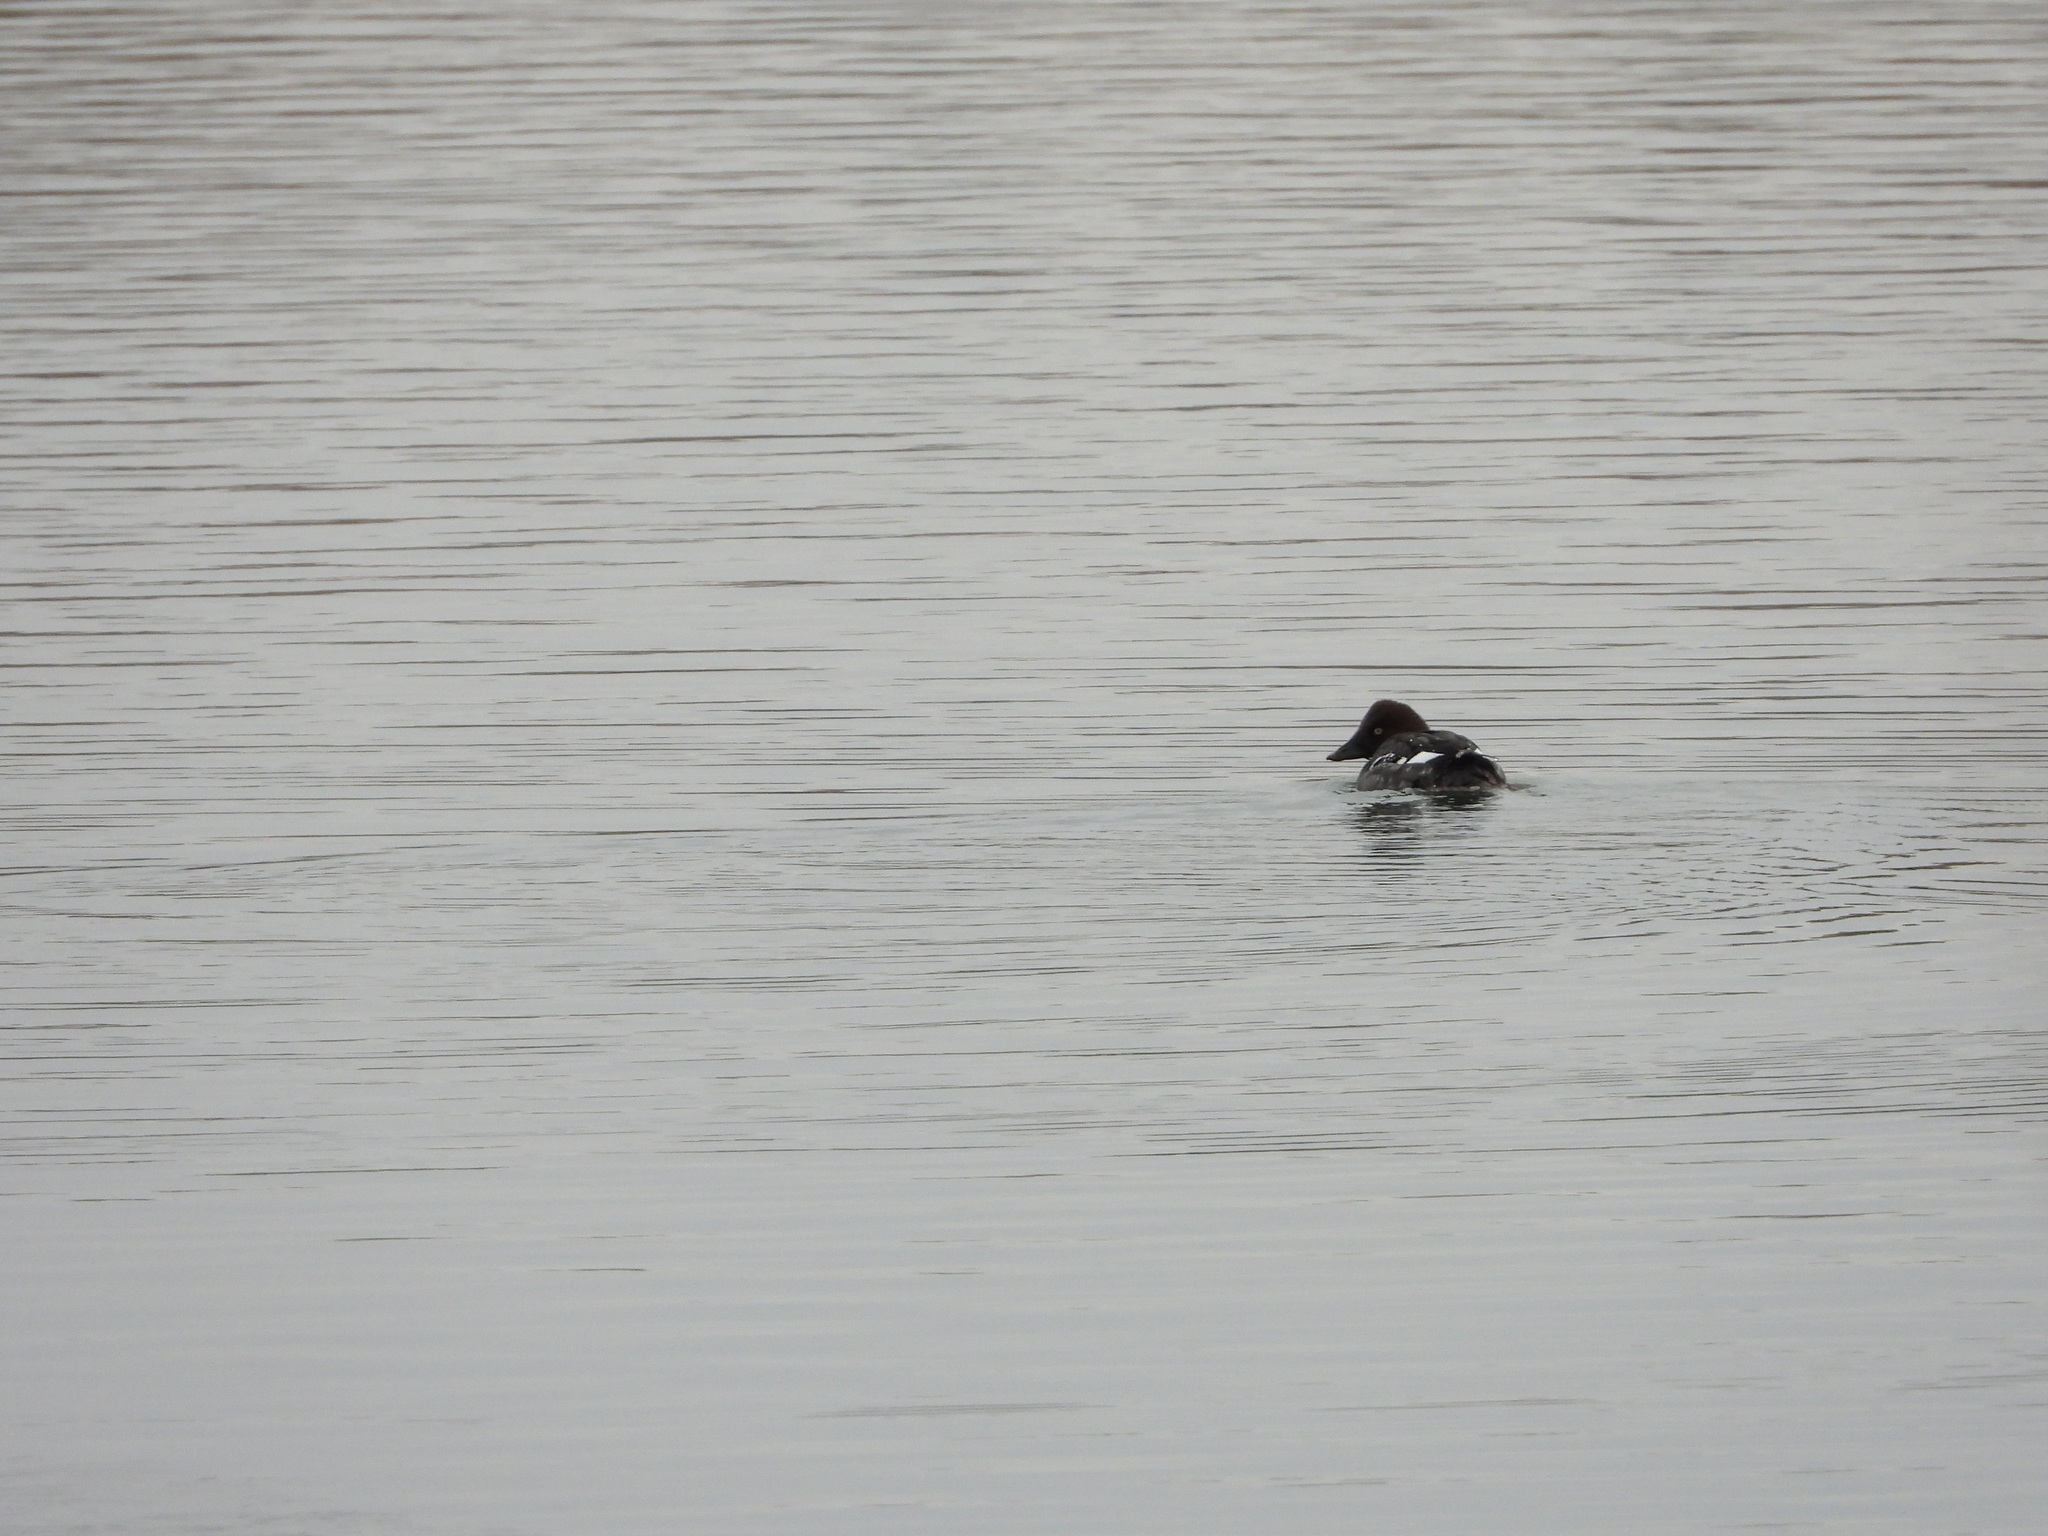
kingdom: Animalia
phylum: Chordata
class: Aves
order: Anseriformes
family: Anatidae
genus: Bucephala
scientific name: Bucephala clangula
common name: Common goldeneye
